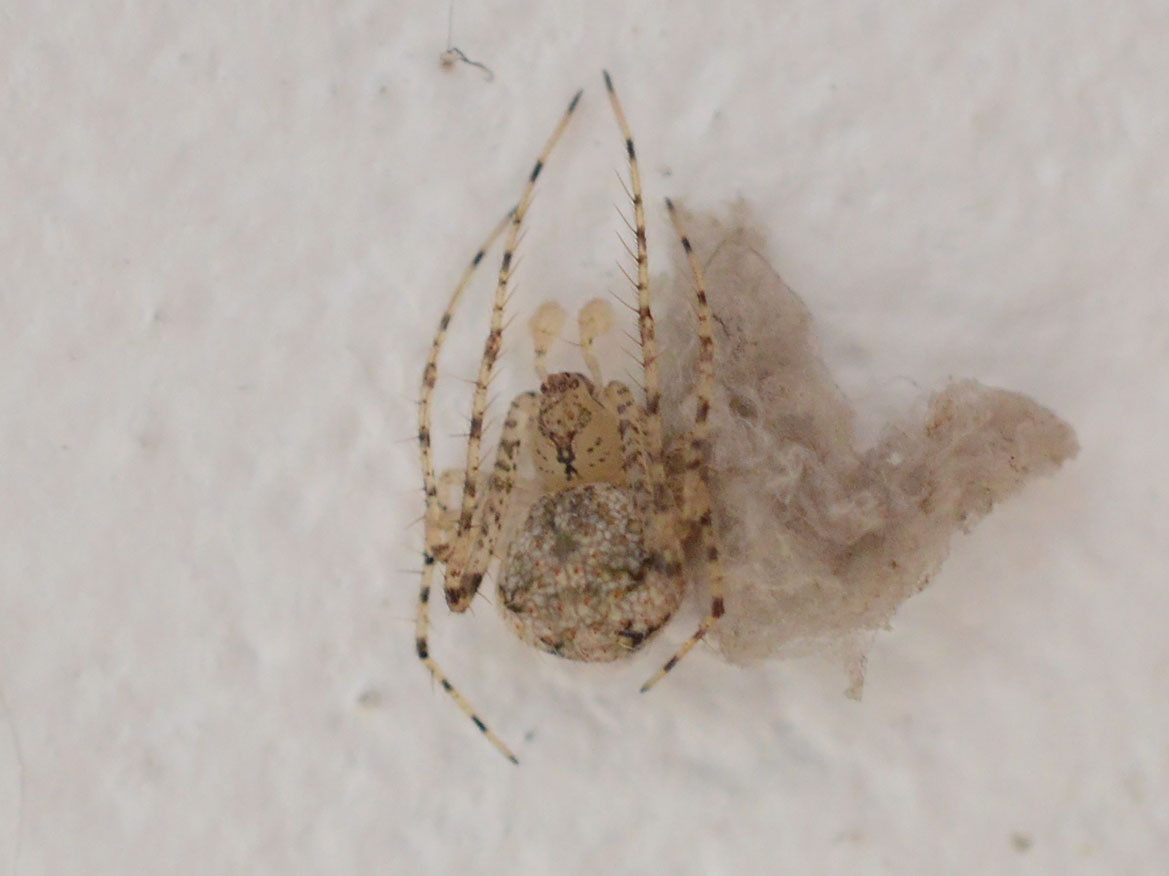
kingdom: Animalia
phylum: Arthropoda
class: Arachnida
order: Araneae
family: Mimetidae
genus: Mimetus
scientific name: Mimetus laevigatus
